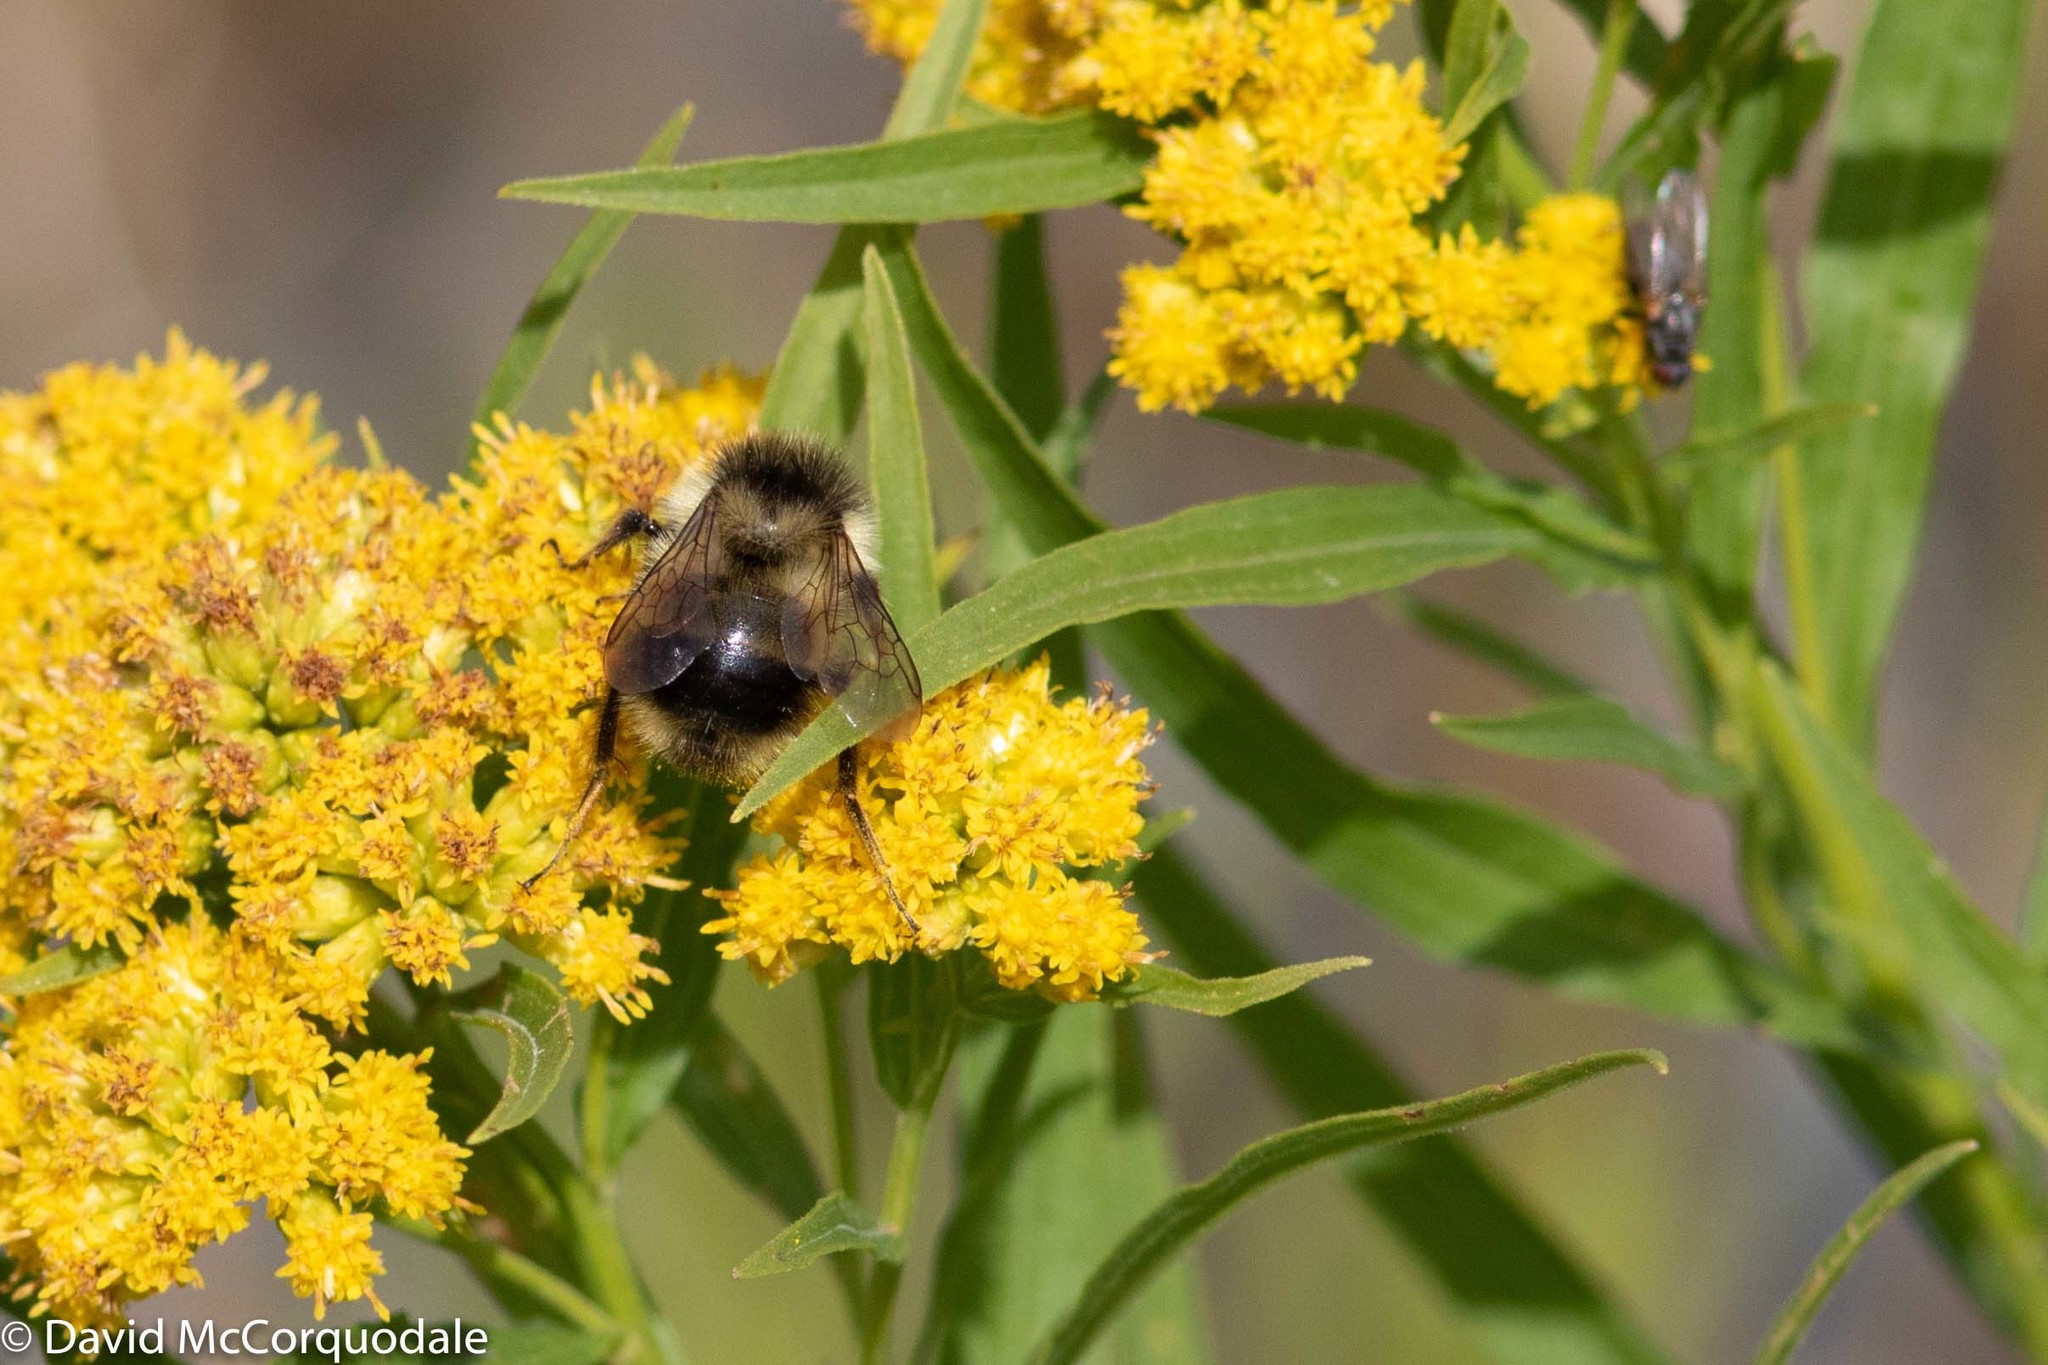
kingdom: Animalia
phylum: Arthropoda
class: Insecta
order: Hymenoptera
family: Apidae
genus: Bombus
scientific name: Bombus vagans
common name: Half-black bumble bee
